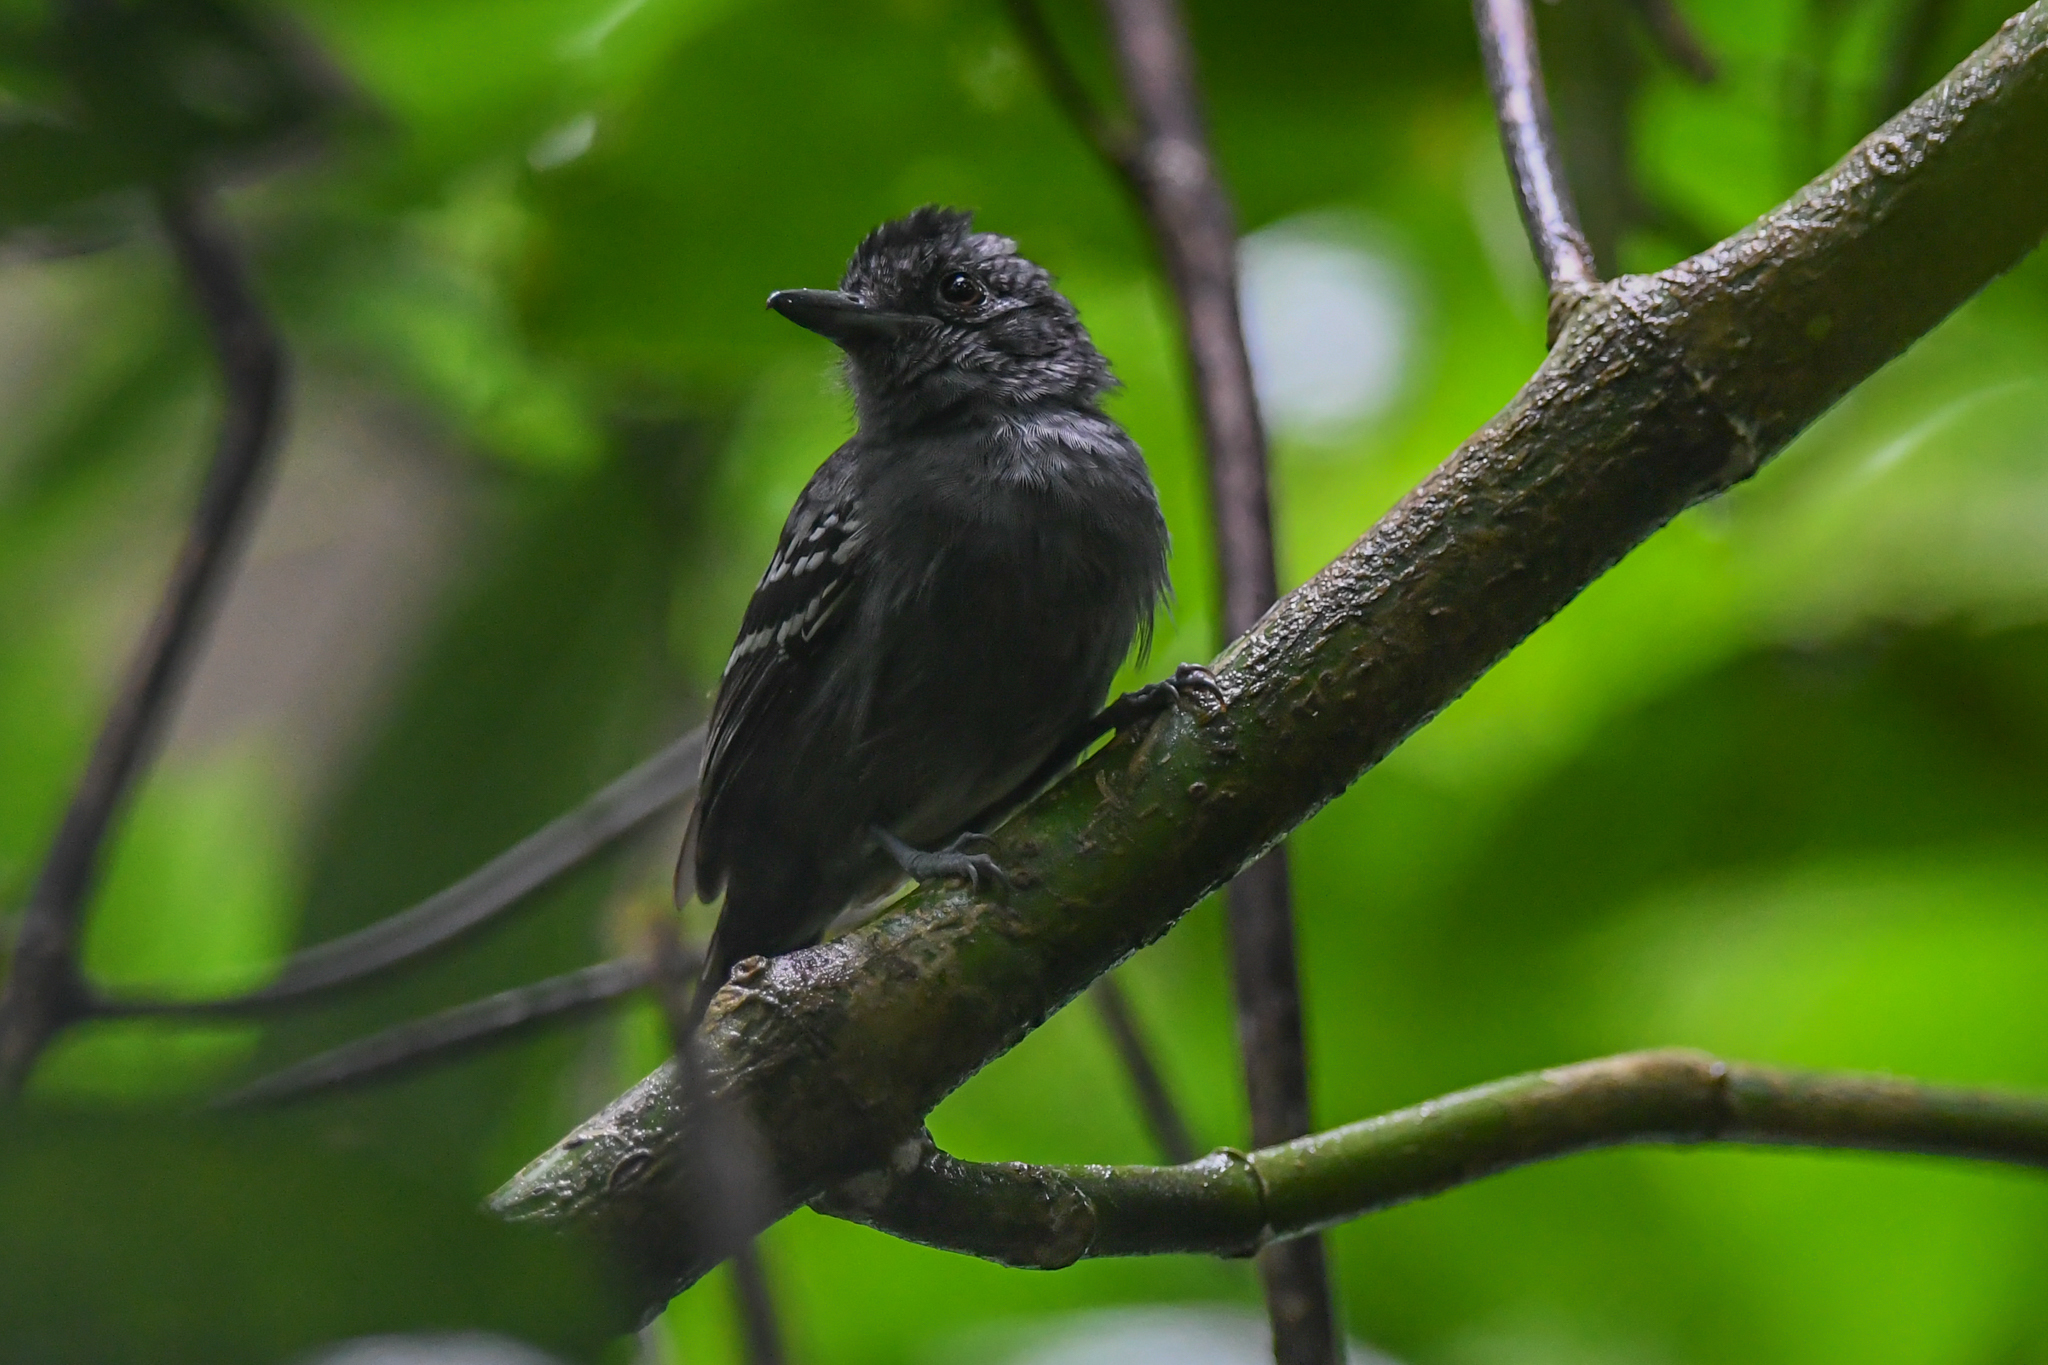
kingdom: Animalia
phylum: Chordata
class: Aves
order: Passeriformes
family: Thamnophilidae
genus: Thamnophilus
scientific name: Thamnophilus atrinucha
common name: Black-crowned antshrike
